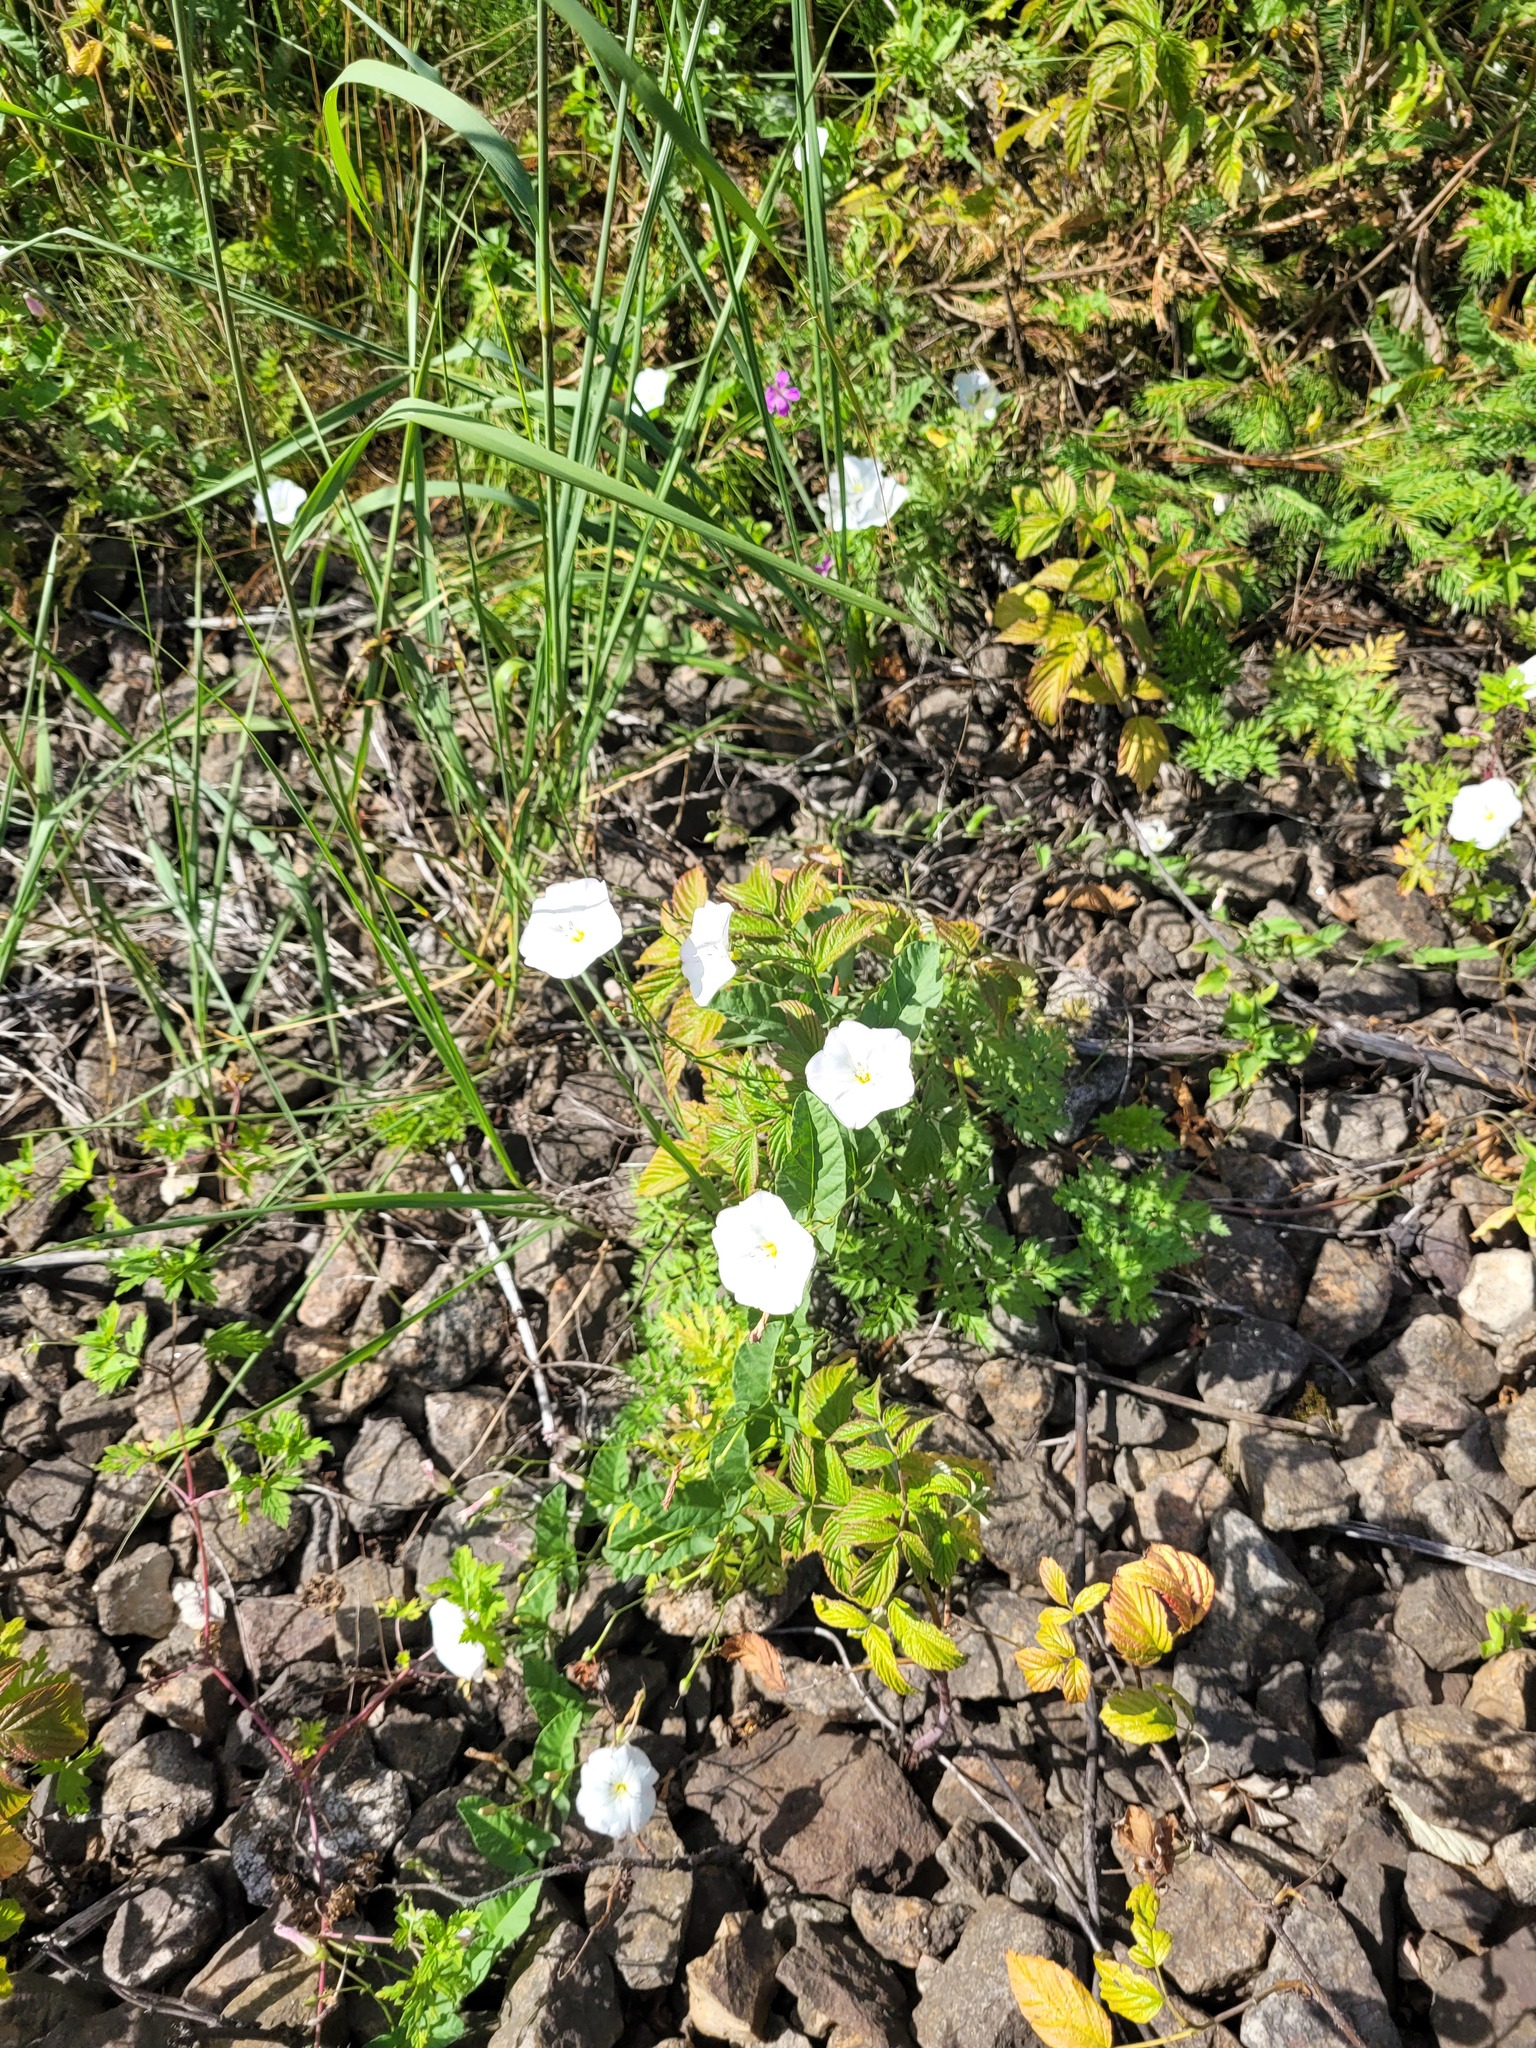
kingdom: Plantae
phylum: Tracheophyta
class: Magnoliopsida
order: Solanales
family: Convolvulaceae
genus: Convolvulus
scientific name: Convolvulus arvensis
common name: Field bindweed
